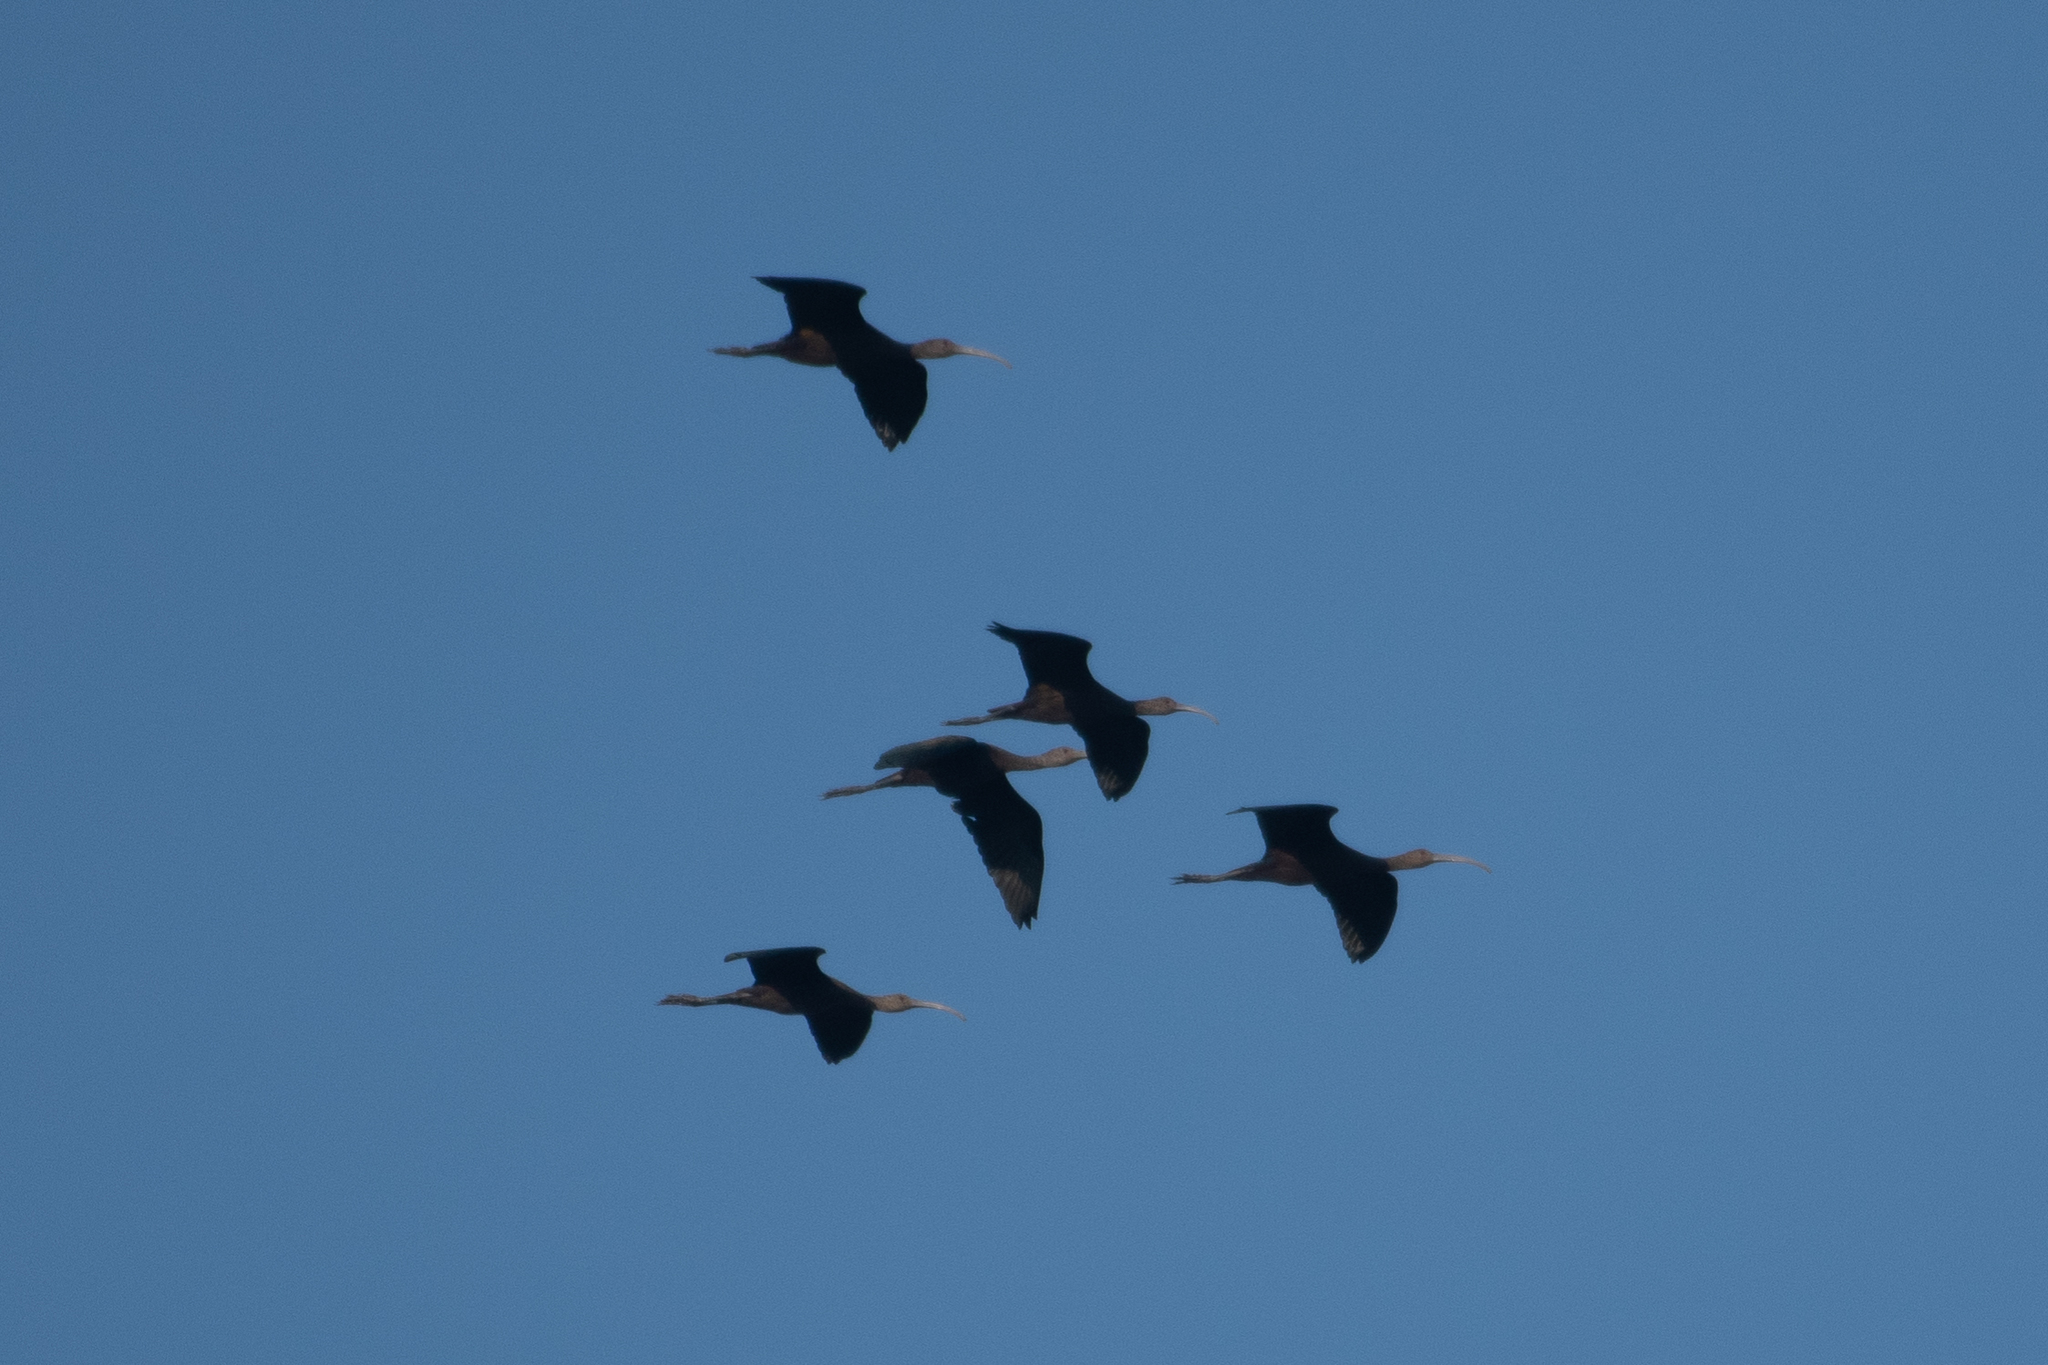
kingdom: Animalia
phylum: Chordata
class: Aves
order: Pelecaniformes
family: Threskiornithidae
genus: Plegadis
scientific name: Plegadis chihi
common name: White-faced ibis
